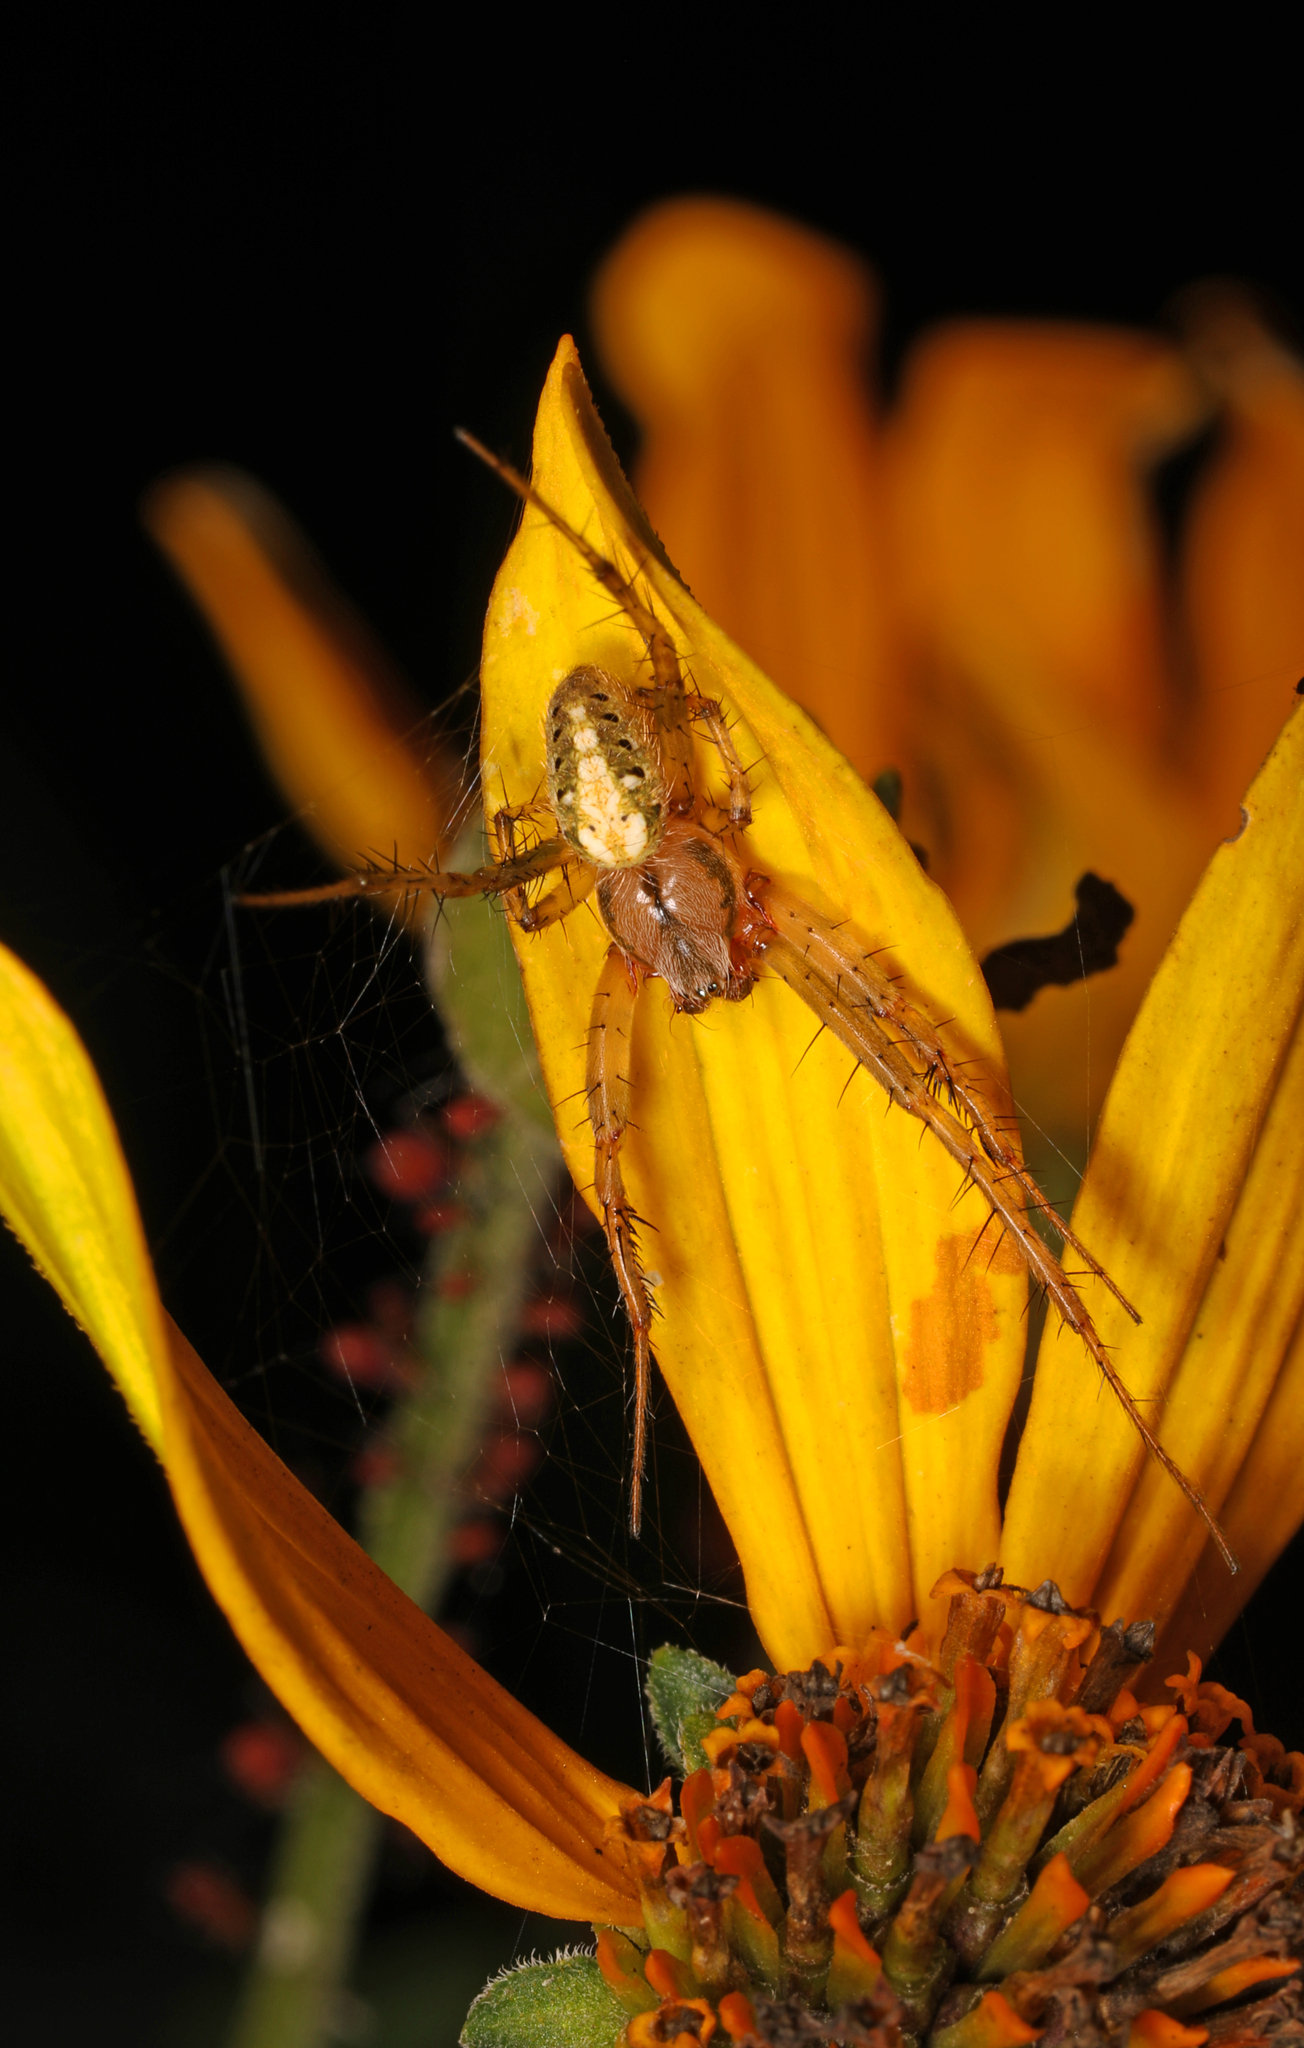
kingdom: Animalia
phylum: Arthropoda
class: Arachnida
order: Araneae
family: Araneidae
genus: Neoscona
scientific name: Neoscona arabesca
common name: Orb weavers
